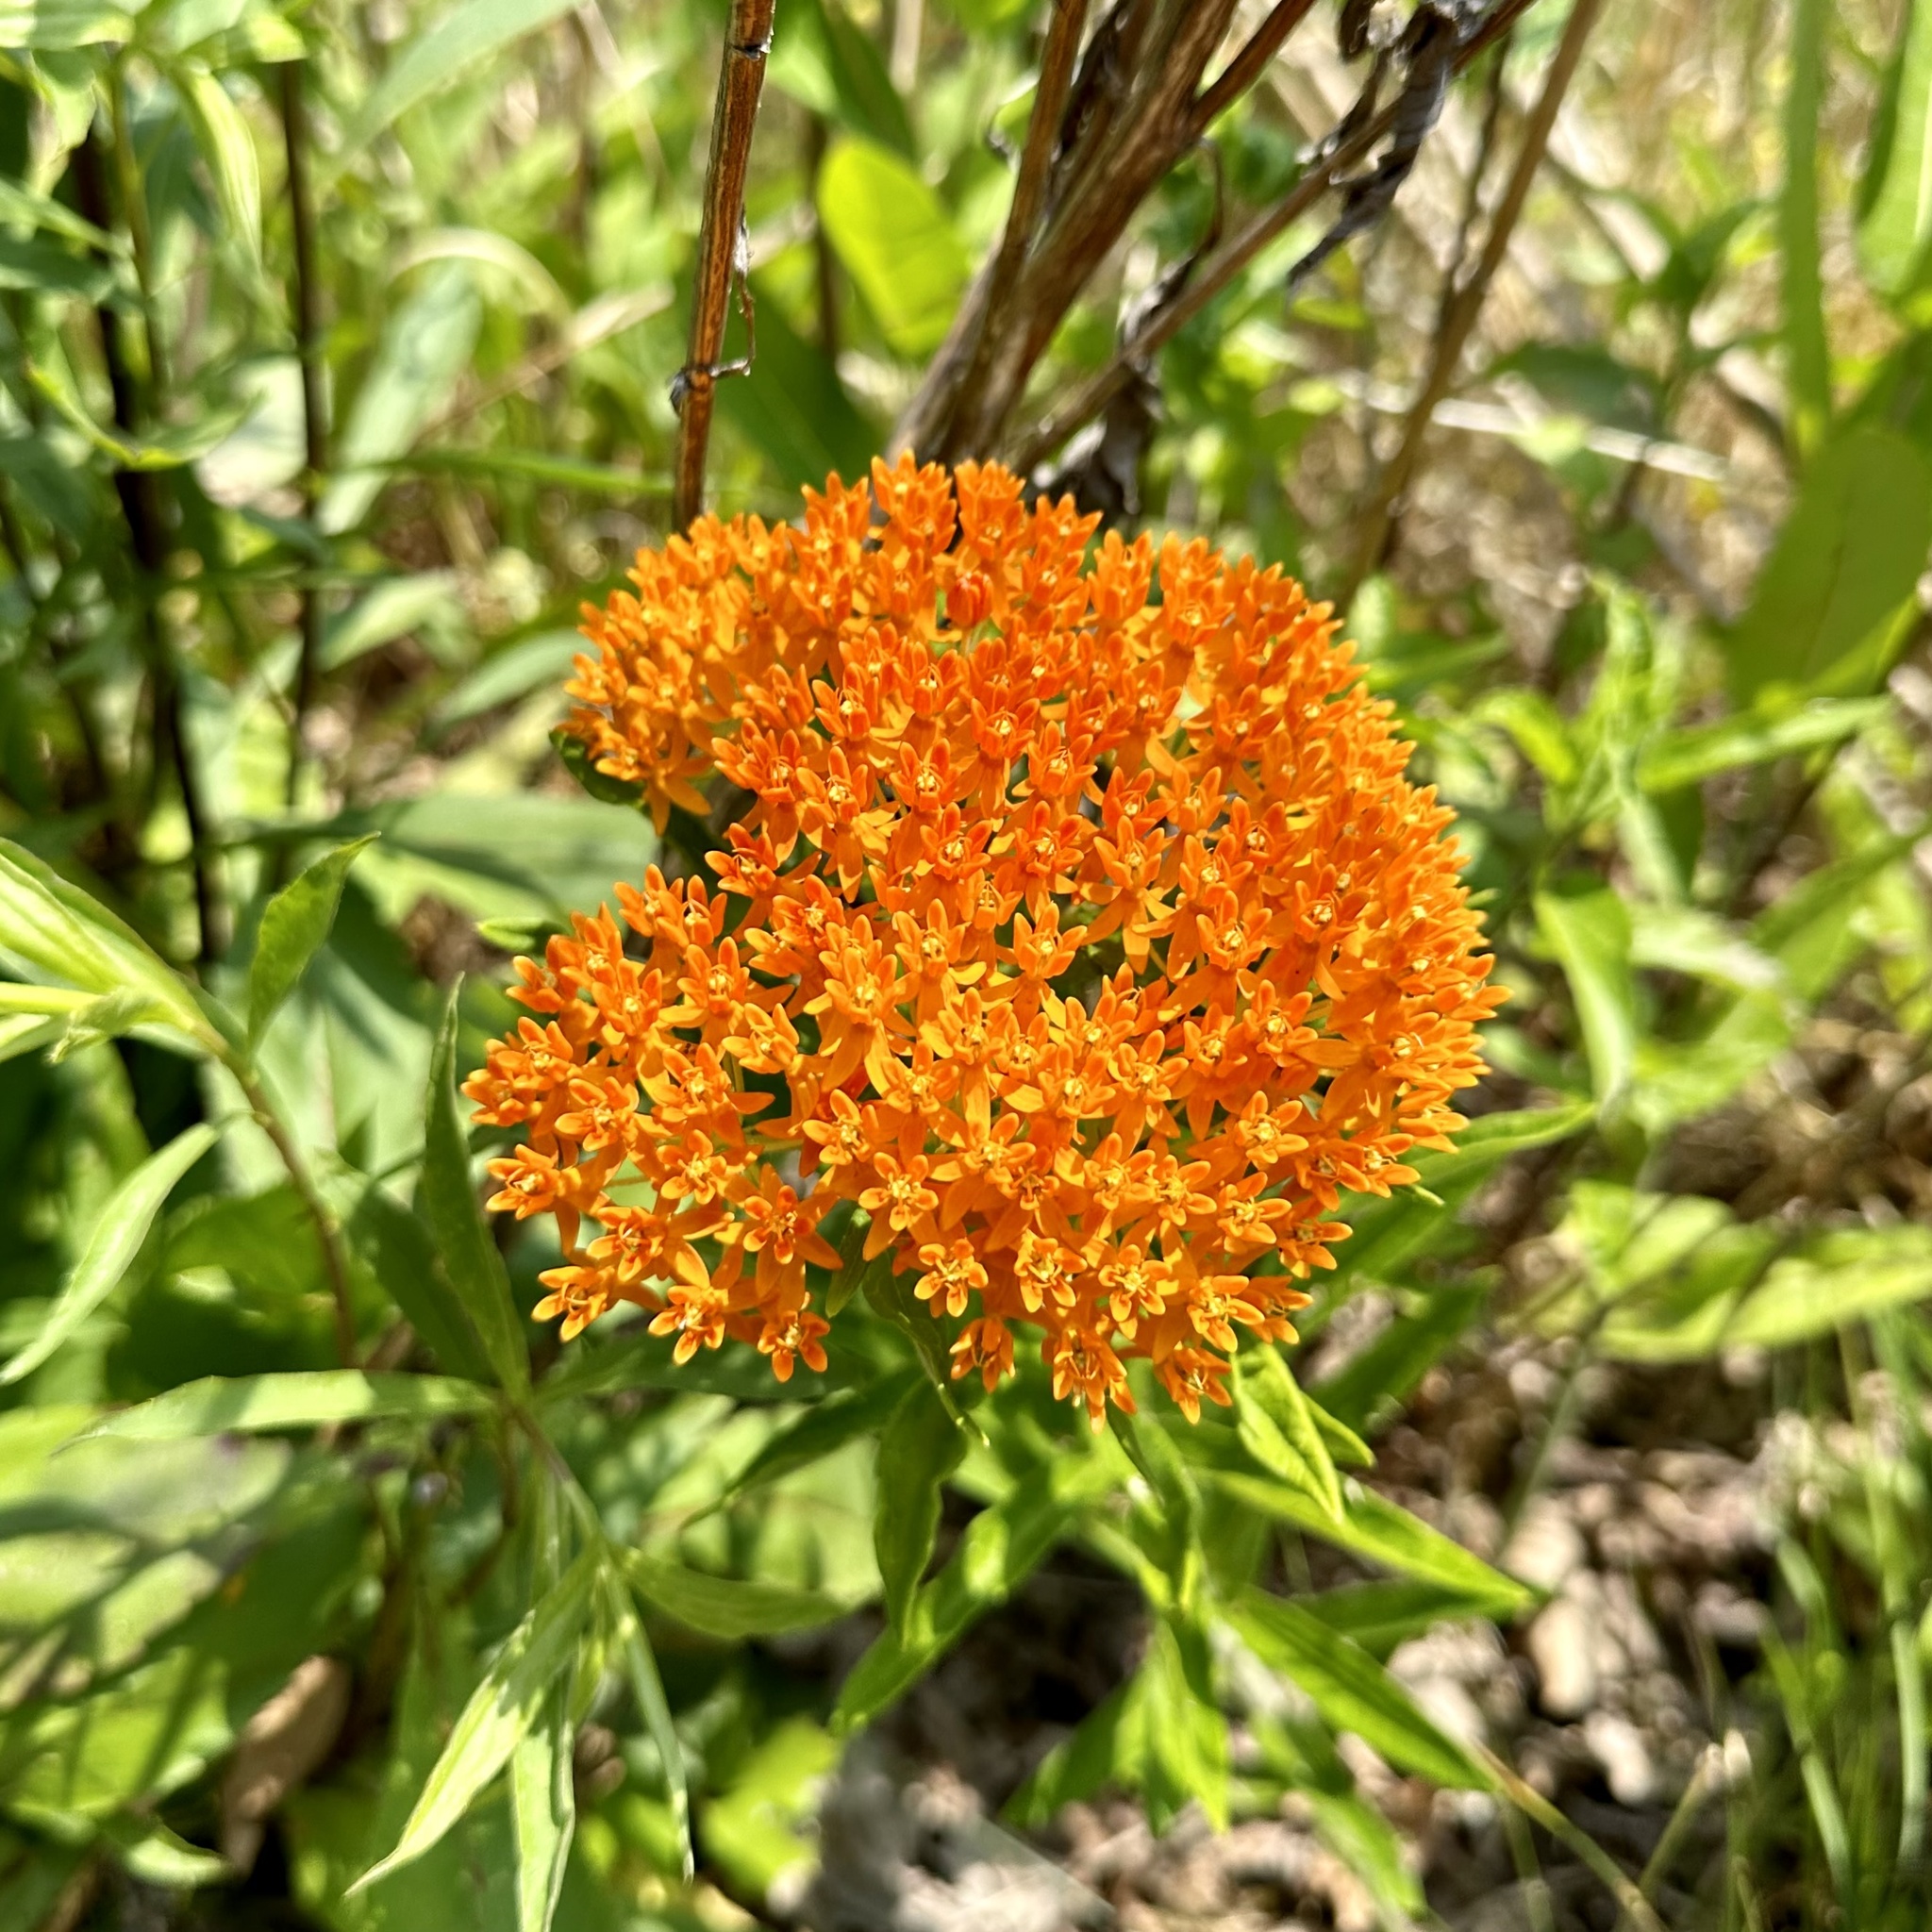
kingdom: Plantae
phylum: Tracheophyta
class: Magnoliopsida
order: Gentianales
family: Apocynaceae
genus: Asclepias
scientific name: Asclepias tuberosa
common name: Butterfly milkweed
